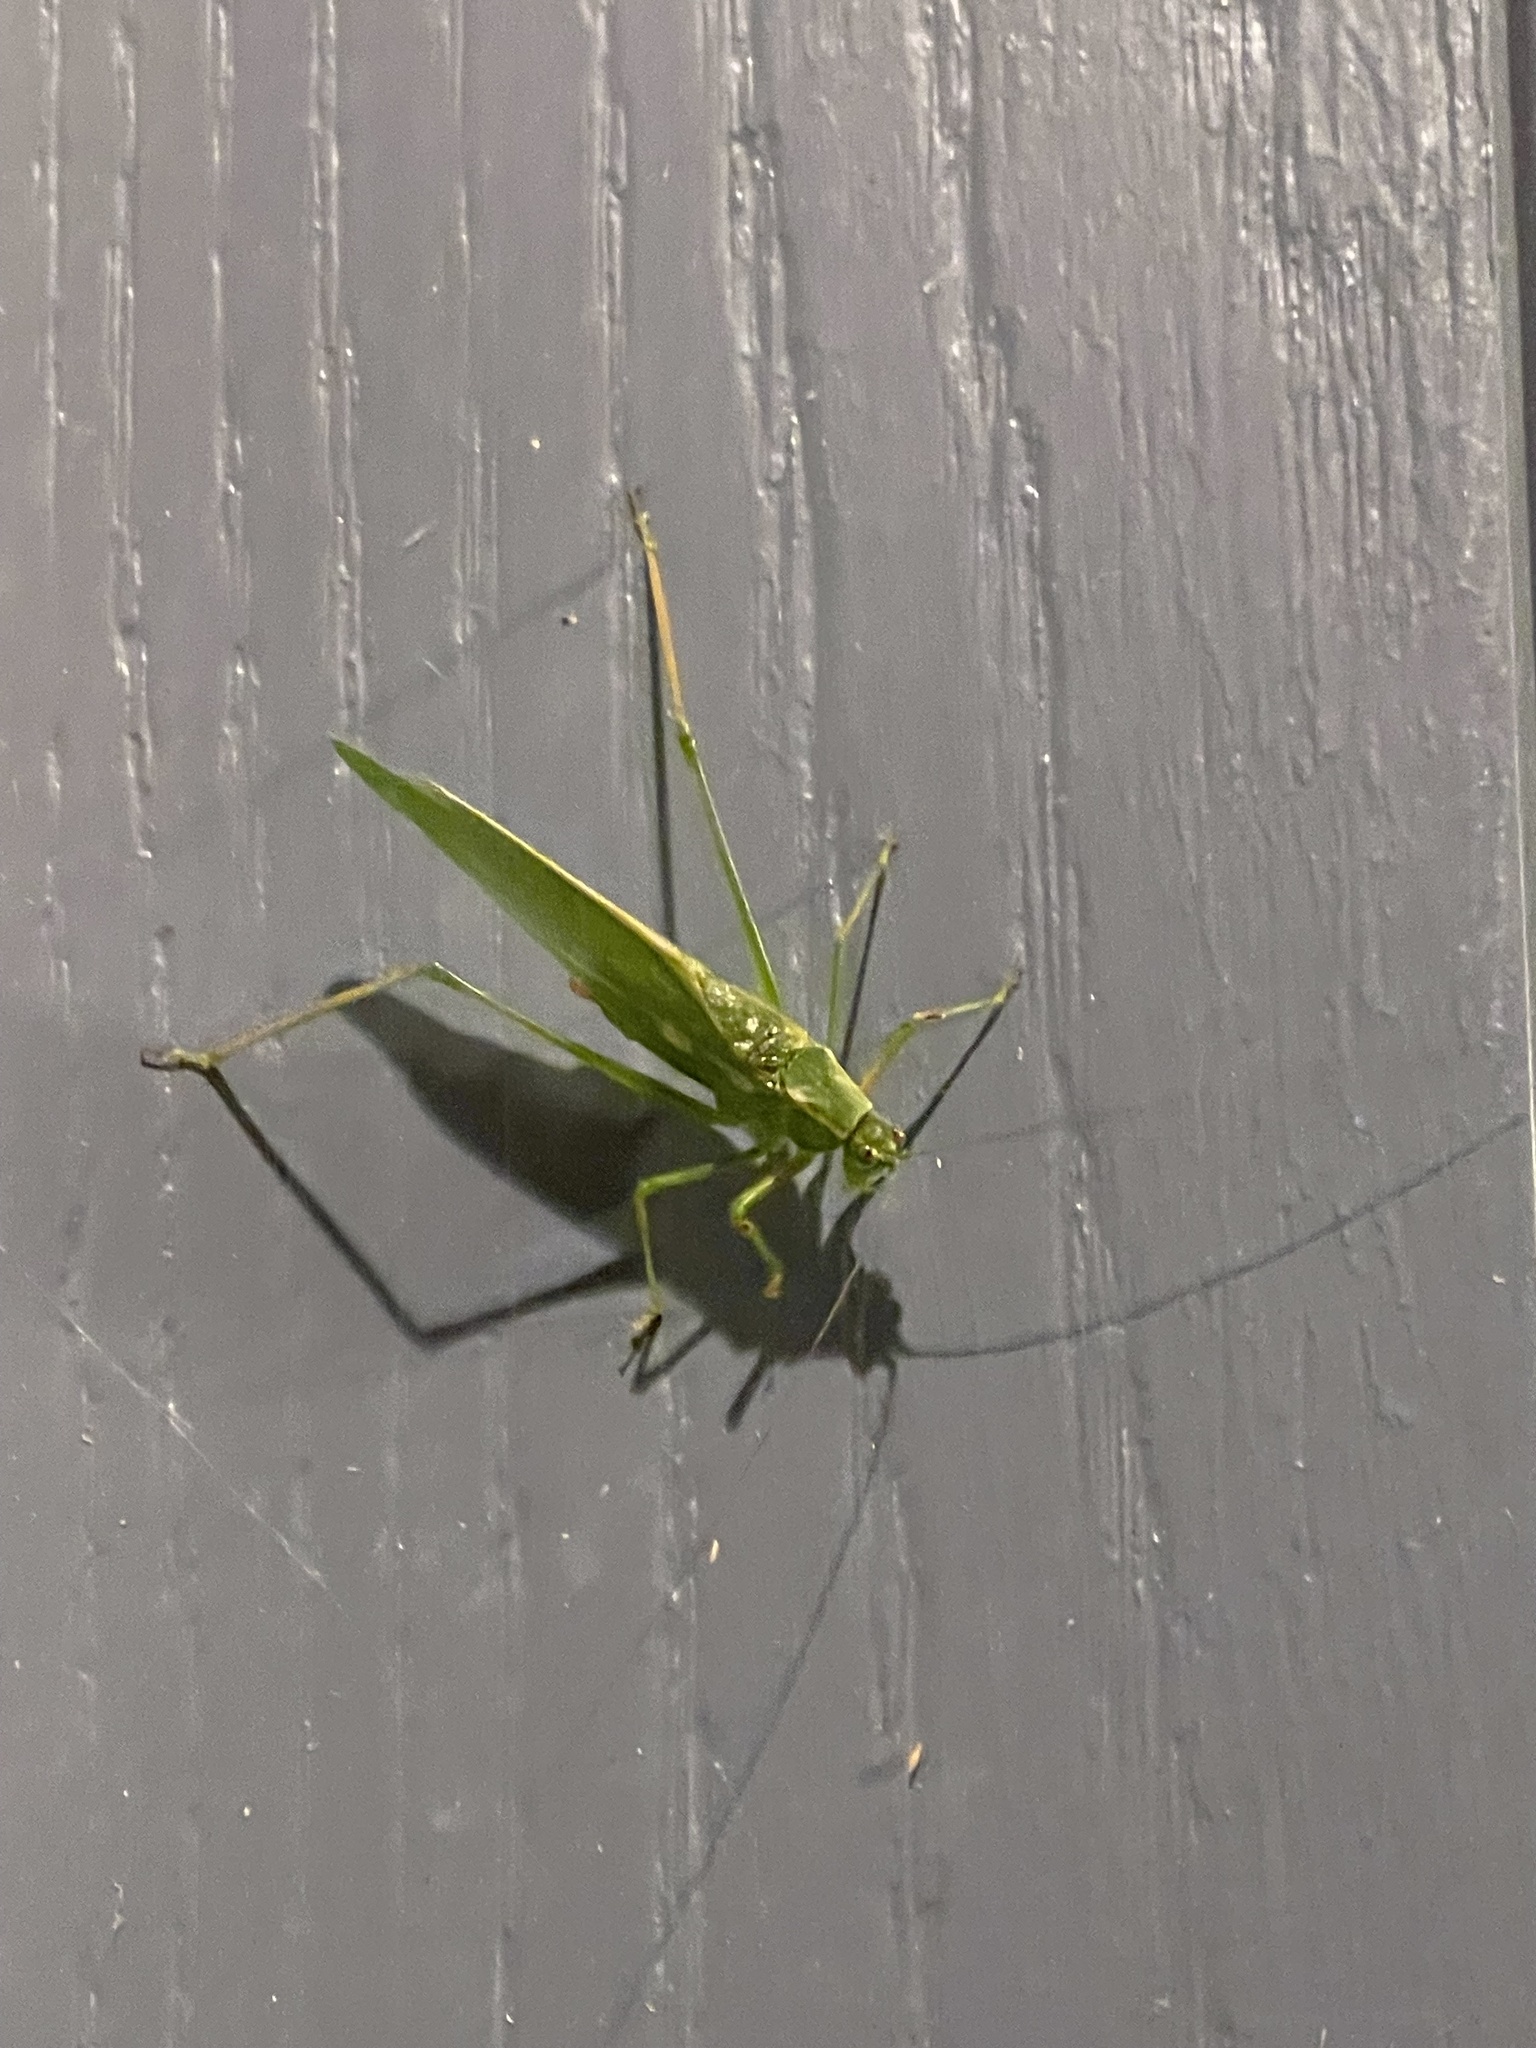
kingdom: Animalia
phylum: Arthropoda
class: Insecta
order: Orthoptera
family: Tettigoniidae
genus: Scudderia
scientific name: Scudderia septentrionalis
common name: Northern bush-katydid
